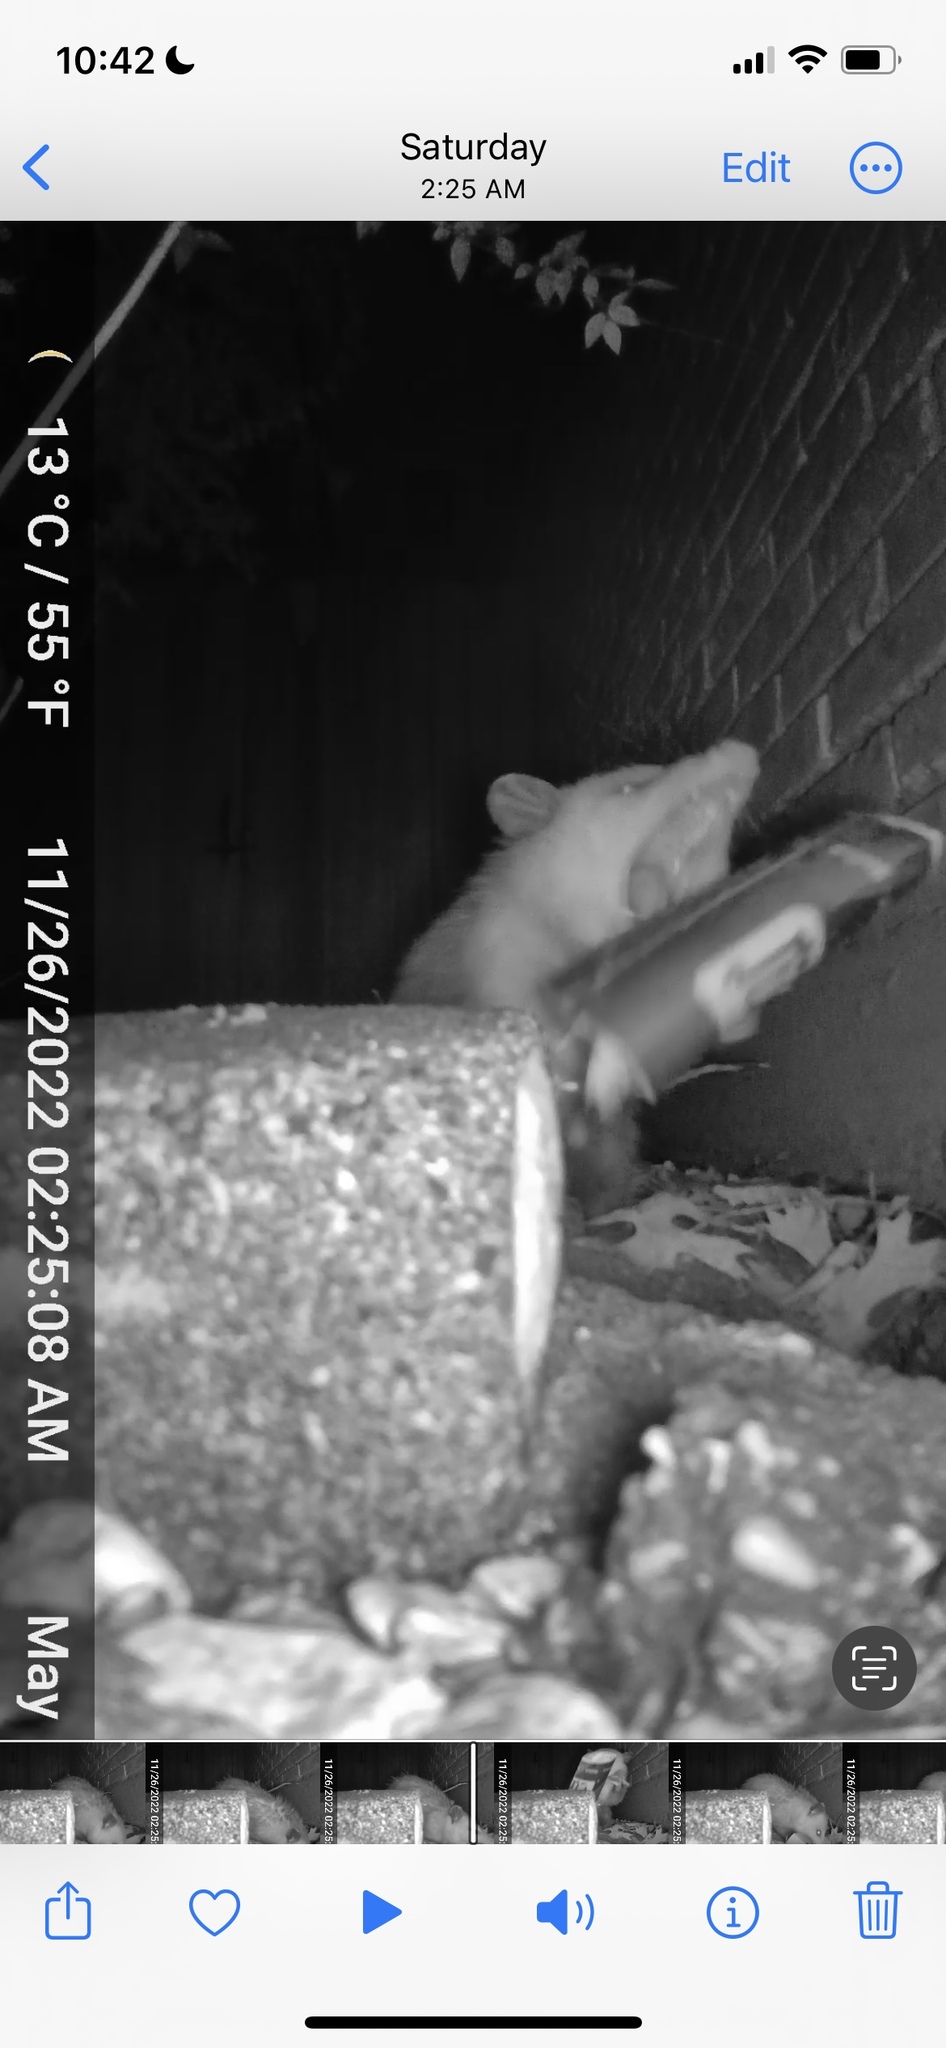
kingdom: Animalia
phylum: Chordata
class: Mammalia
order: Didelphimorphia
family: Didelphidae
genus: Didelphis
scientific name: Didelphis virginiana
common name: Virginia opossum
